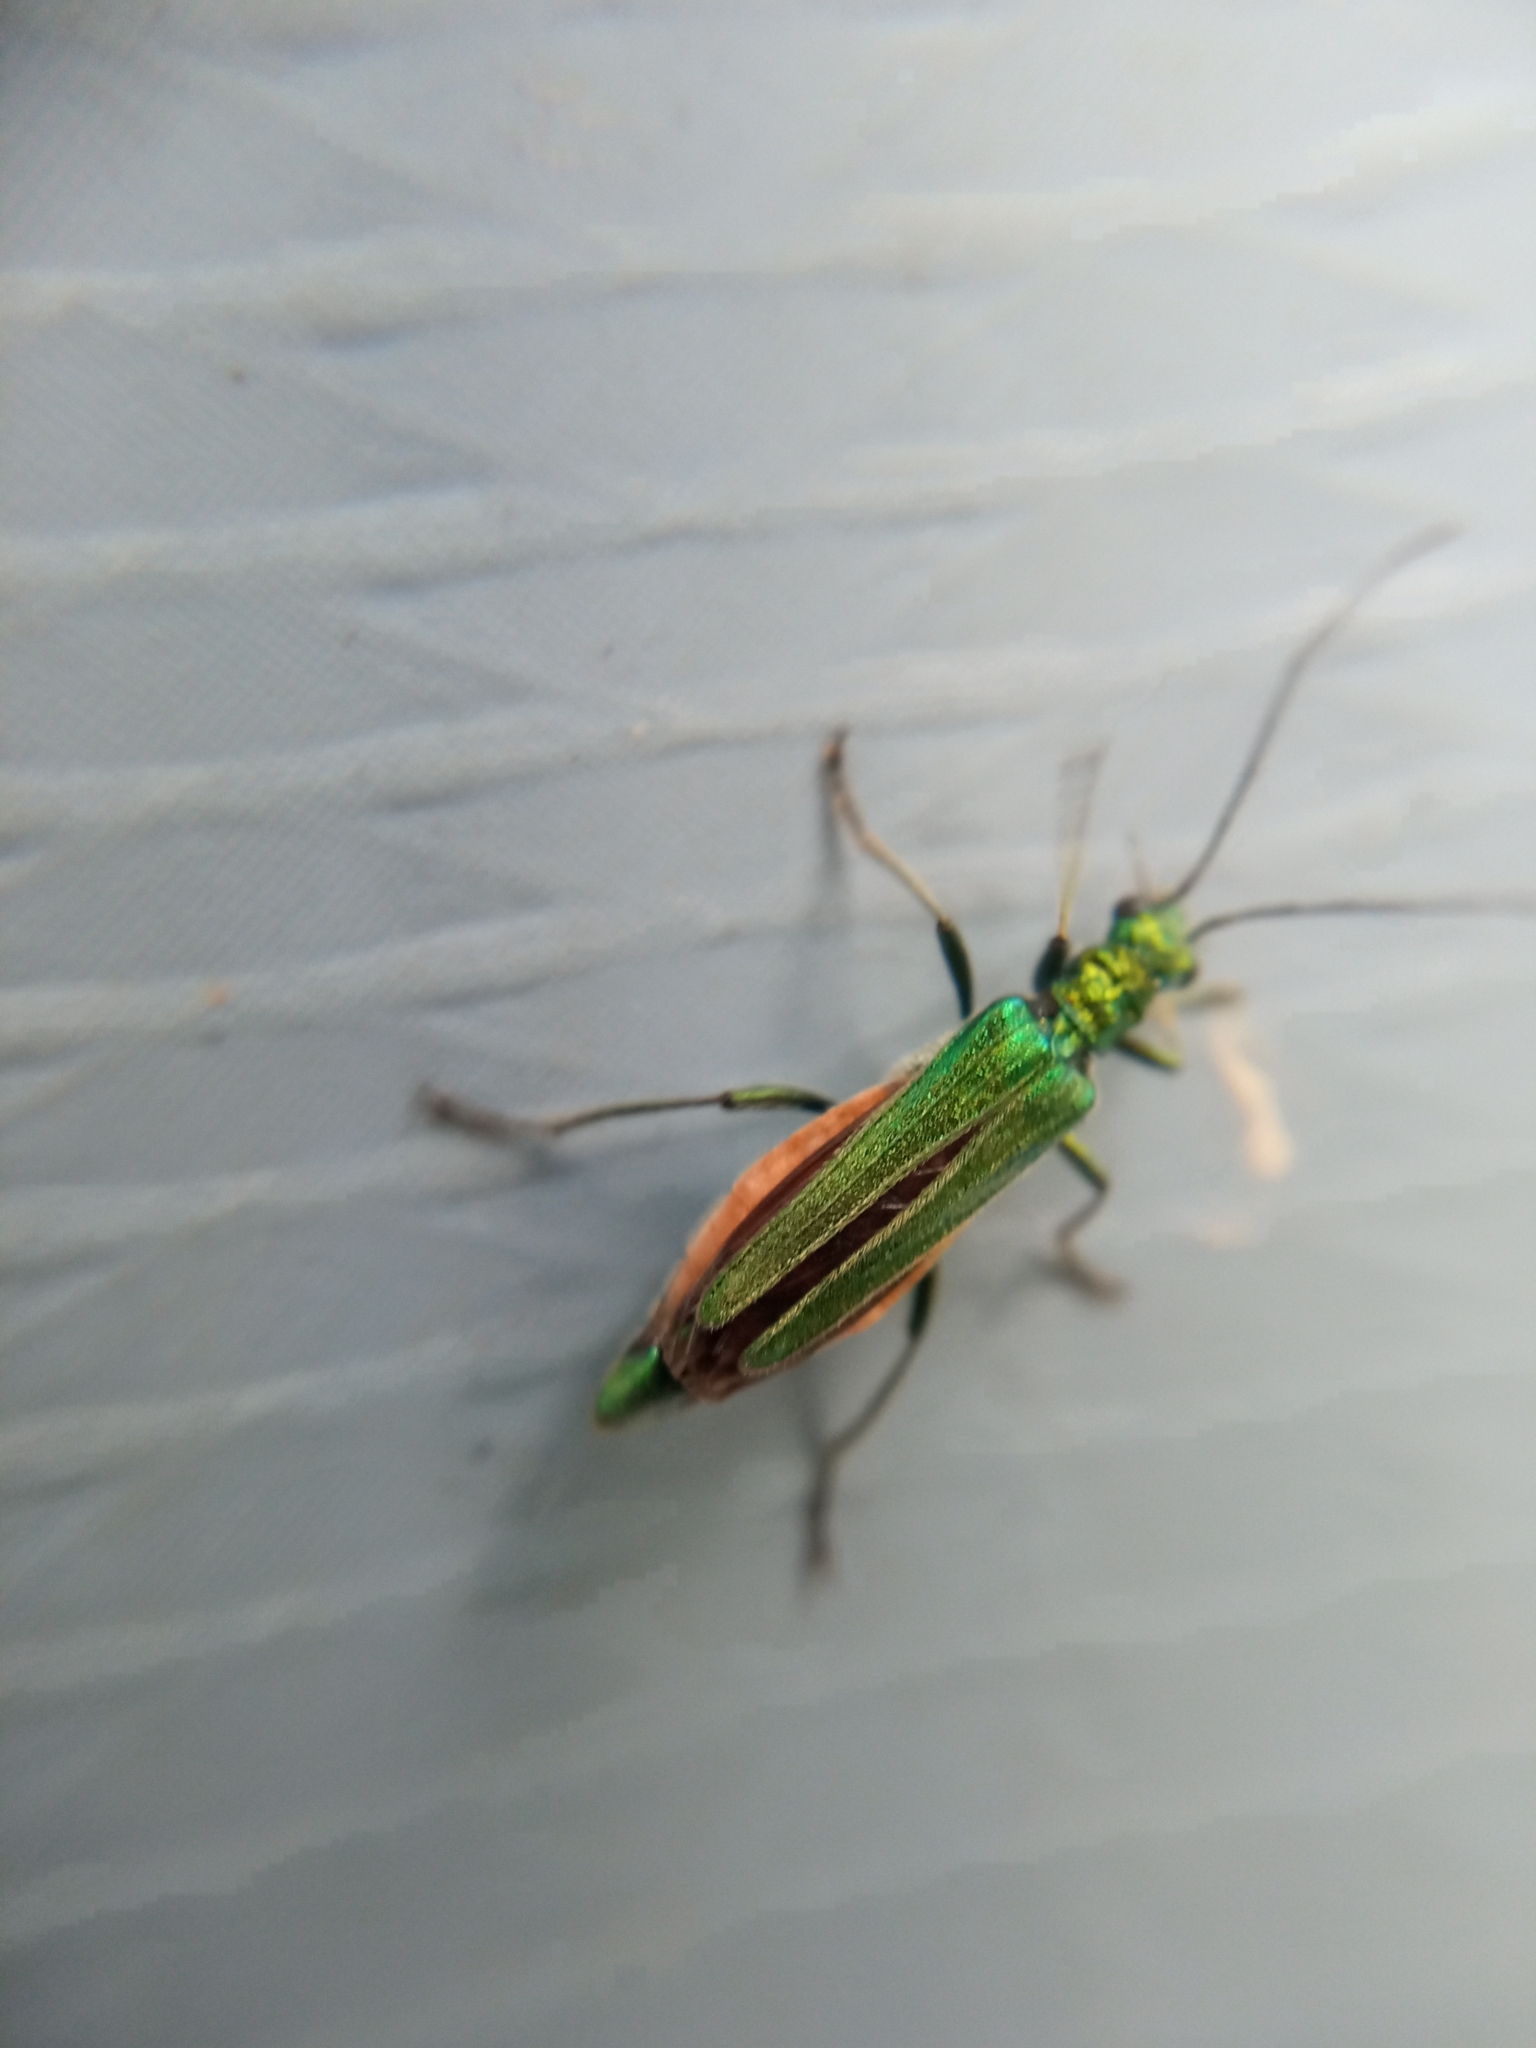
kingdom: Animalia
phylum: Arthropoda
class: Insecta
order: Coleoptera
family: Oedemeridae
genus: Oedemera
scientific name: Oedemera nobilis
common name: Swollen-thighed beetle
